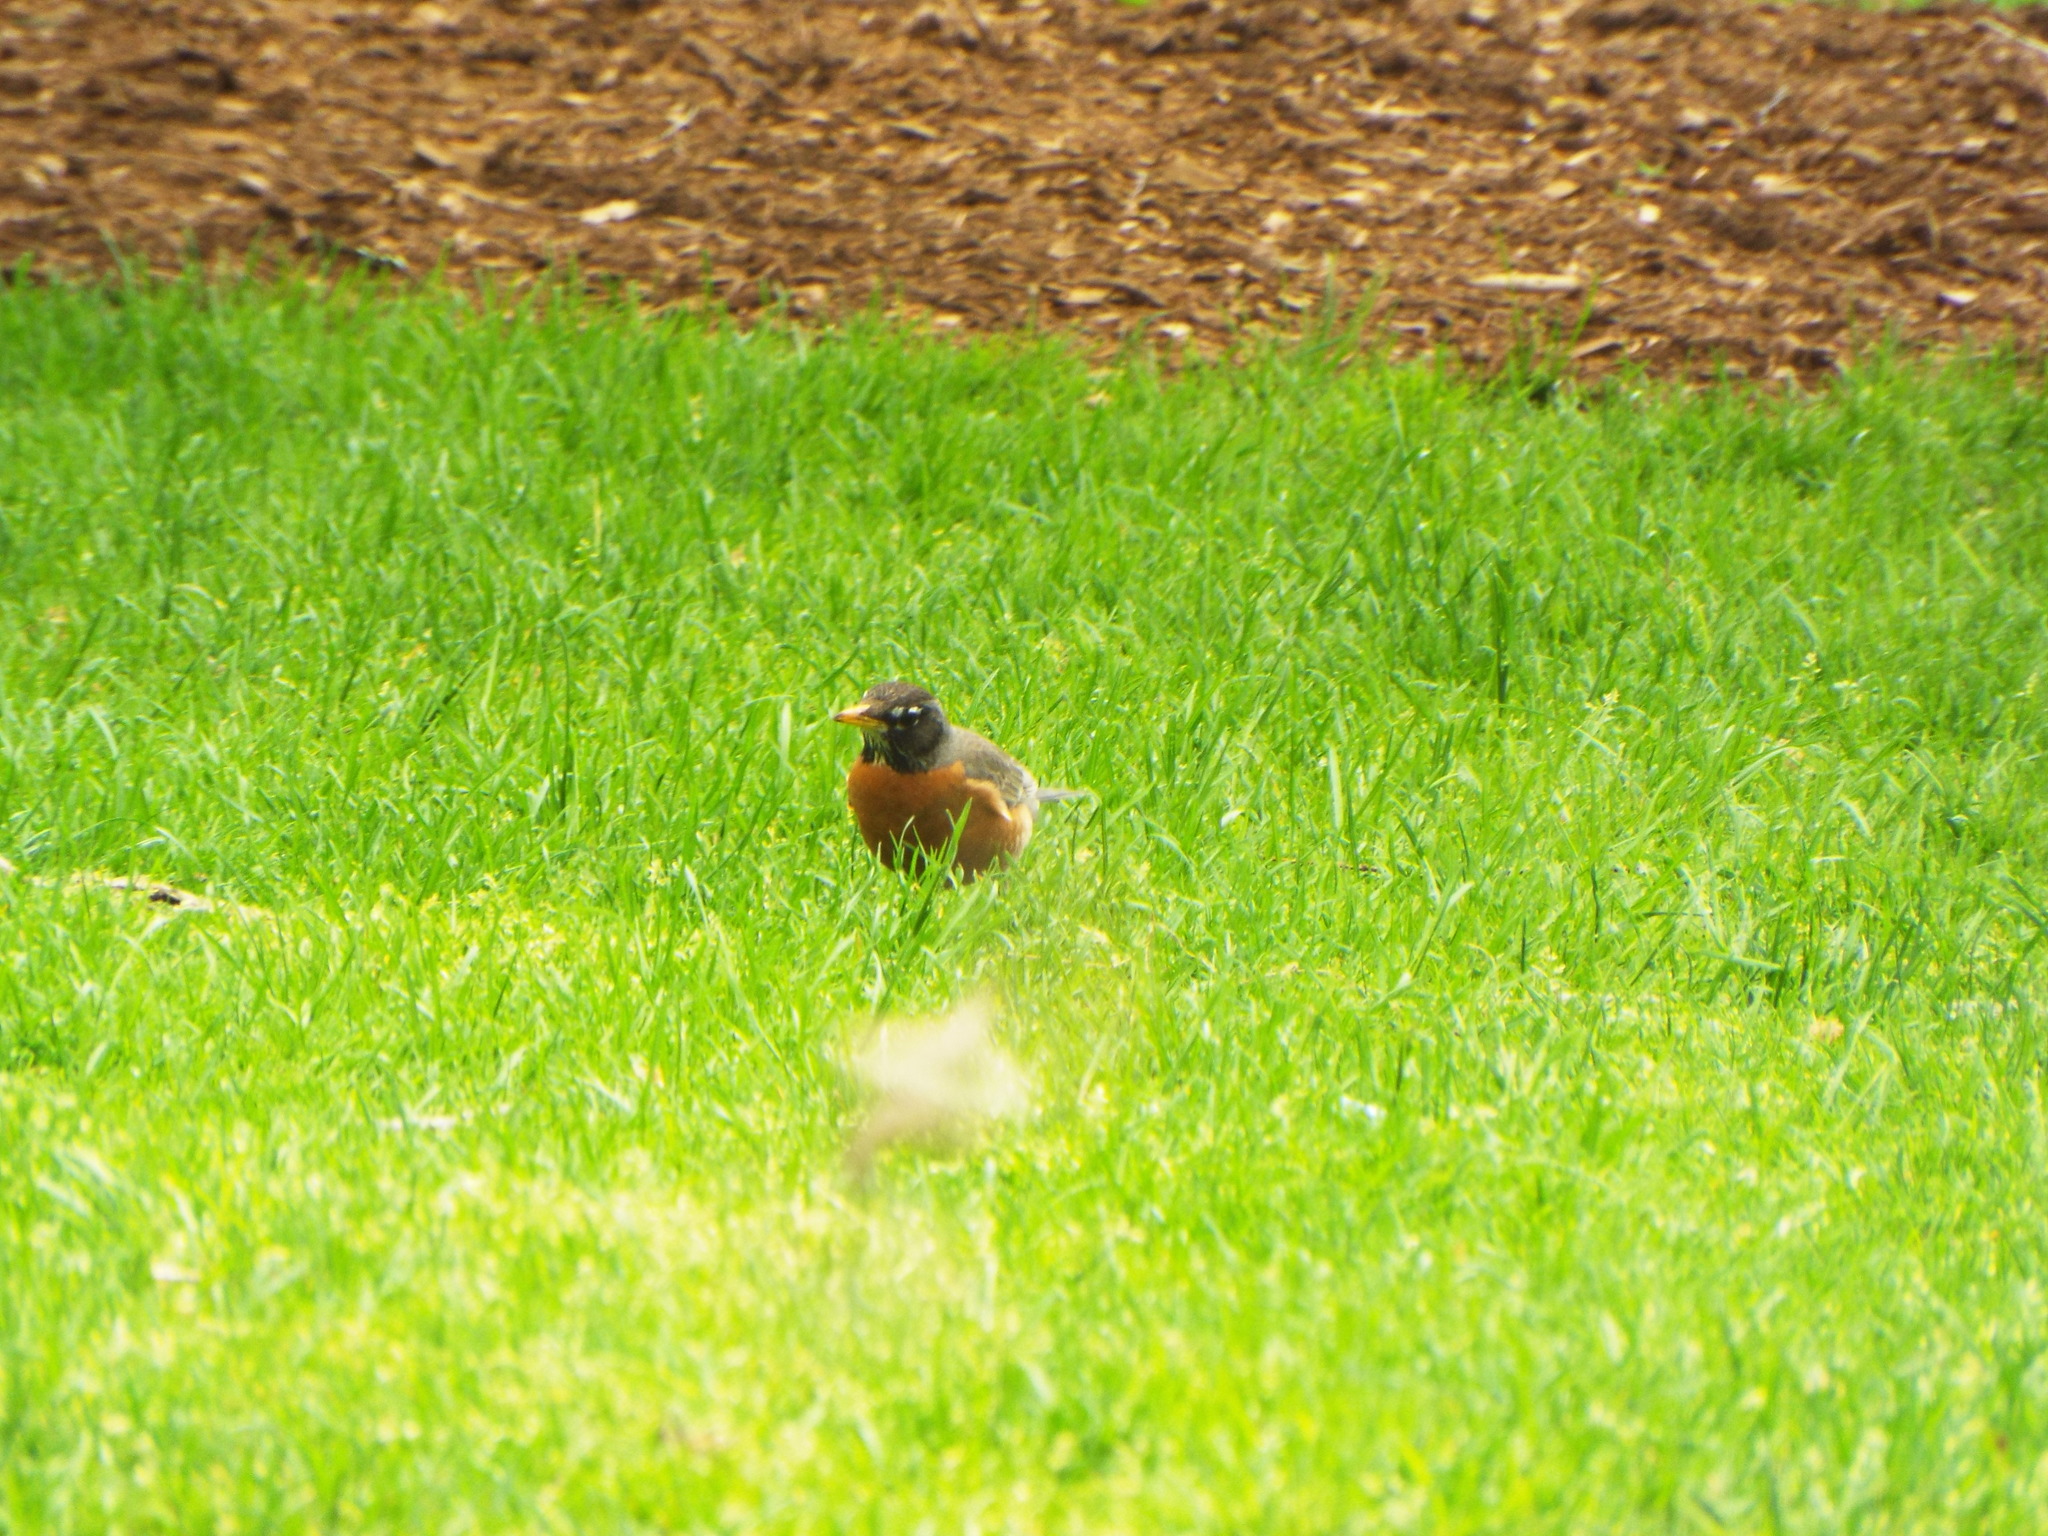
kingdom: Animalia
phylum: Chordata
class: Aves
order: Passeriformes
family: Turdidae
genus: Turdus
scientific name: Turdus migratorius
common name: American robin
